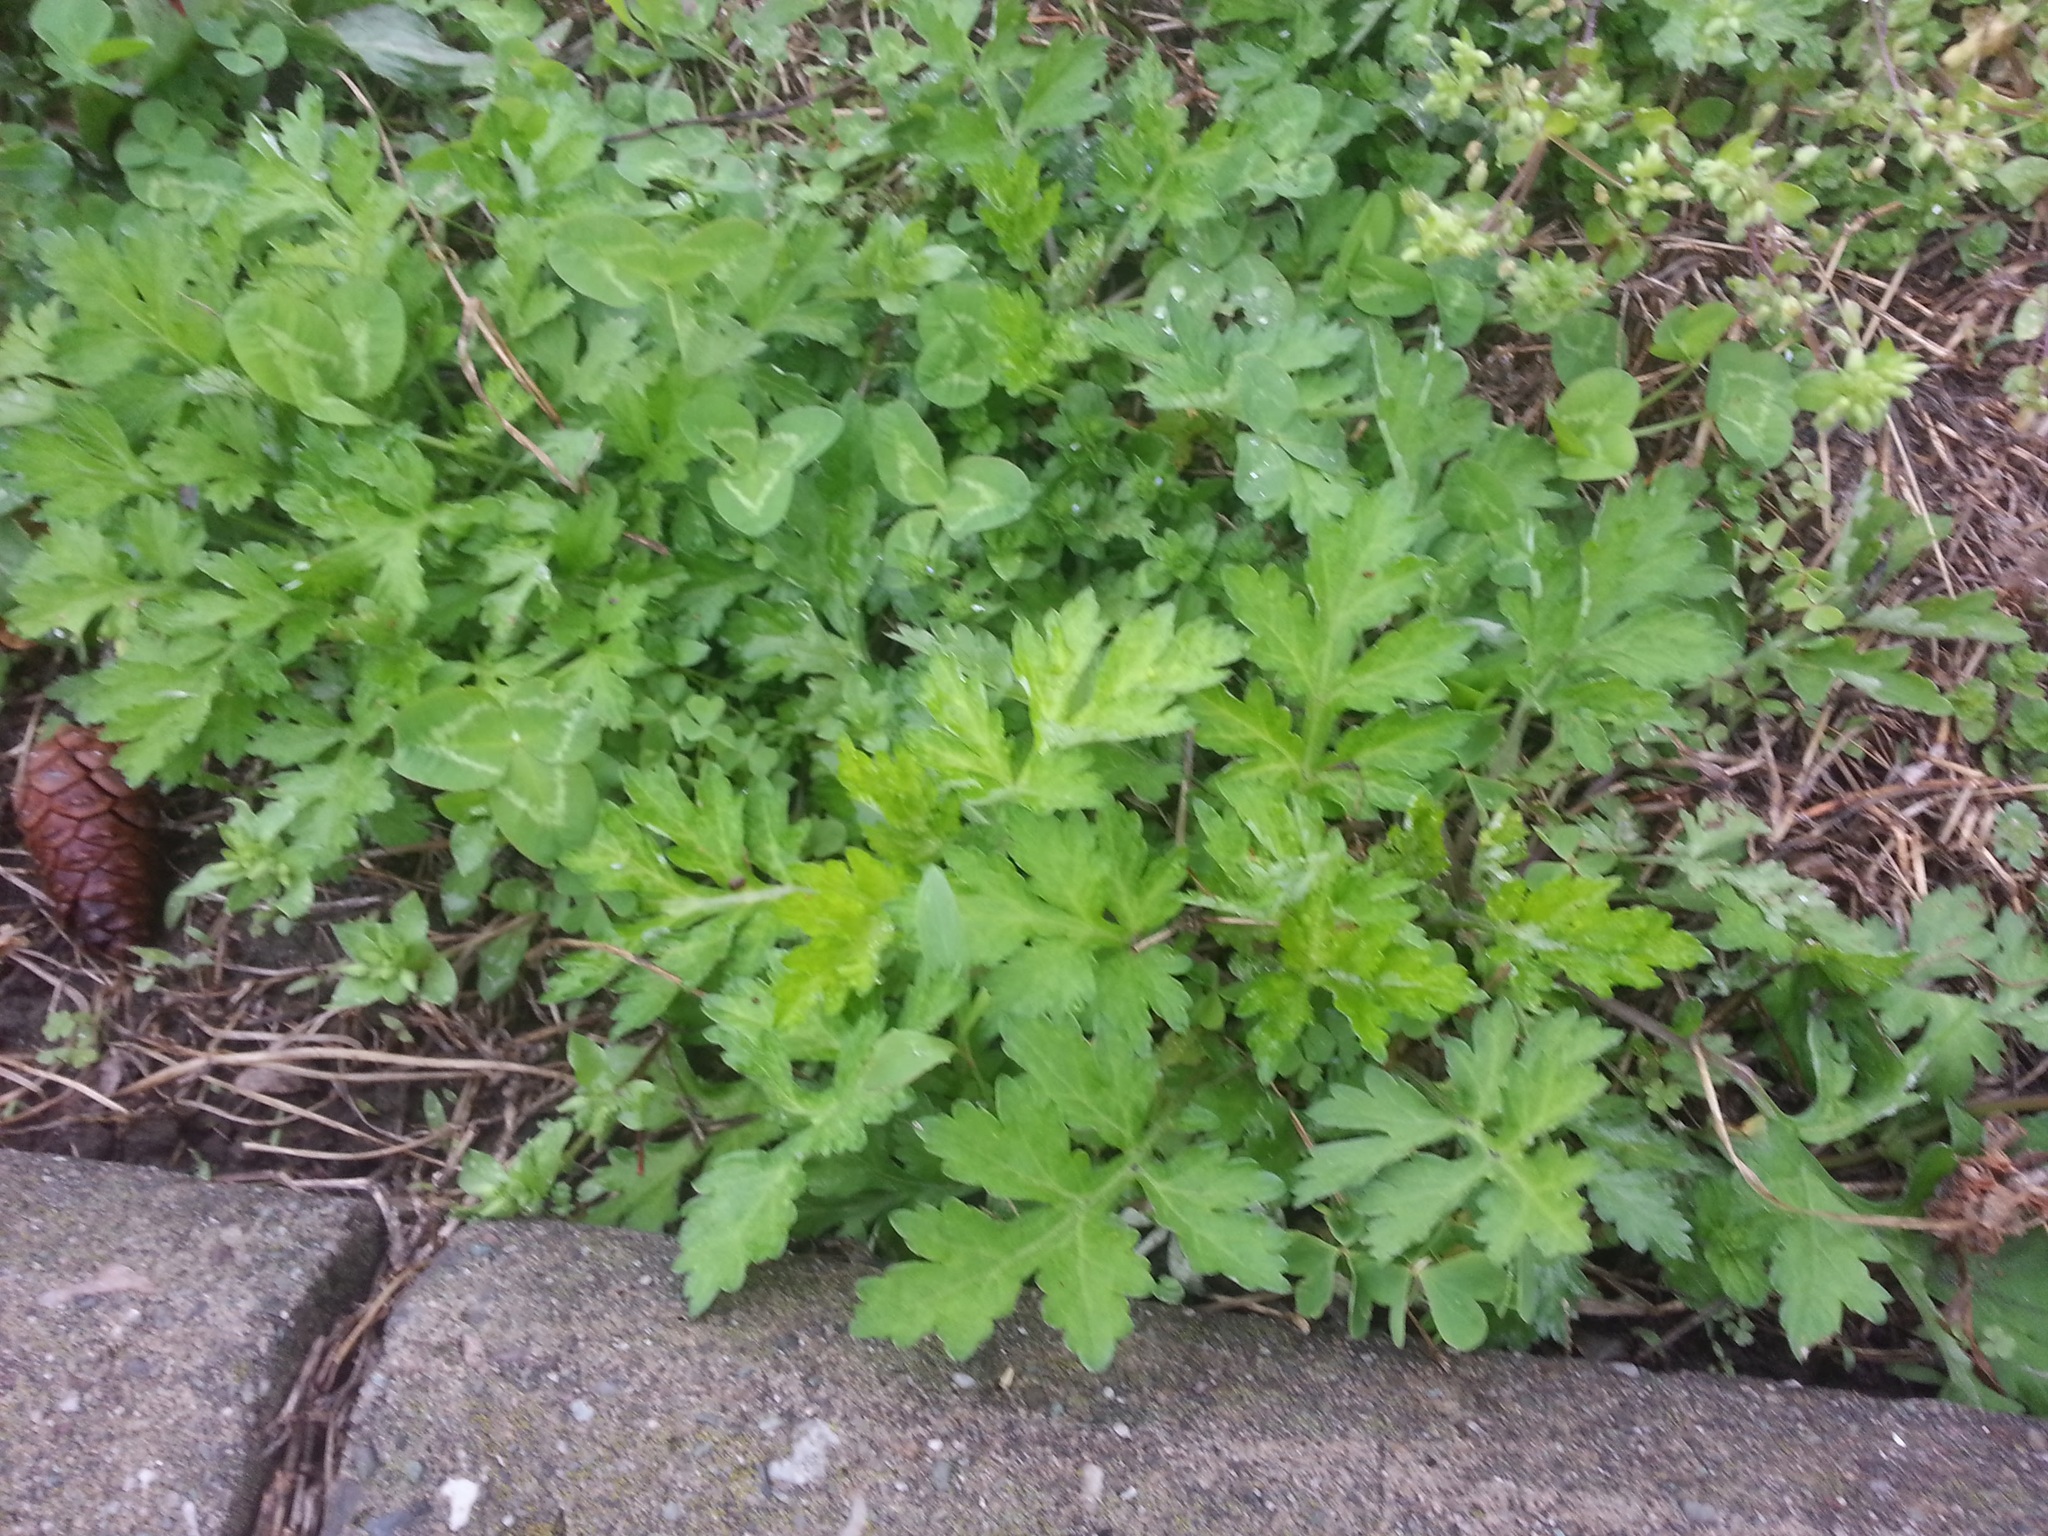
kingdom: Plantae
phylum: Tracheophyta
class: Magnoliopsida
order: Asterales
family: Asteraceae
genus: Artemisia
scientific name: Artemisia vulgaris
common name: Mugwort
